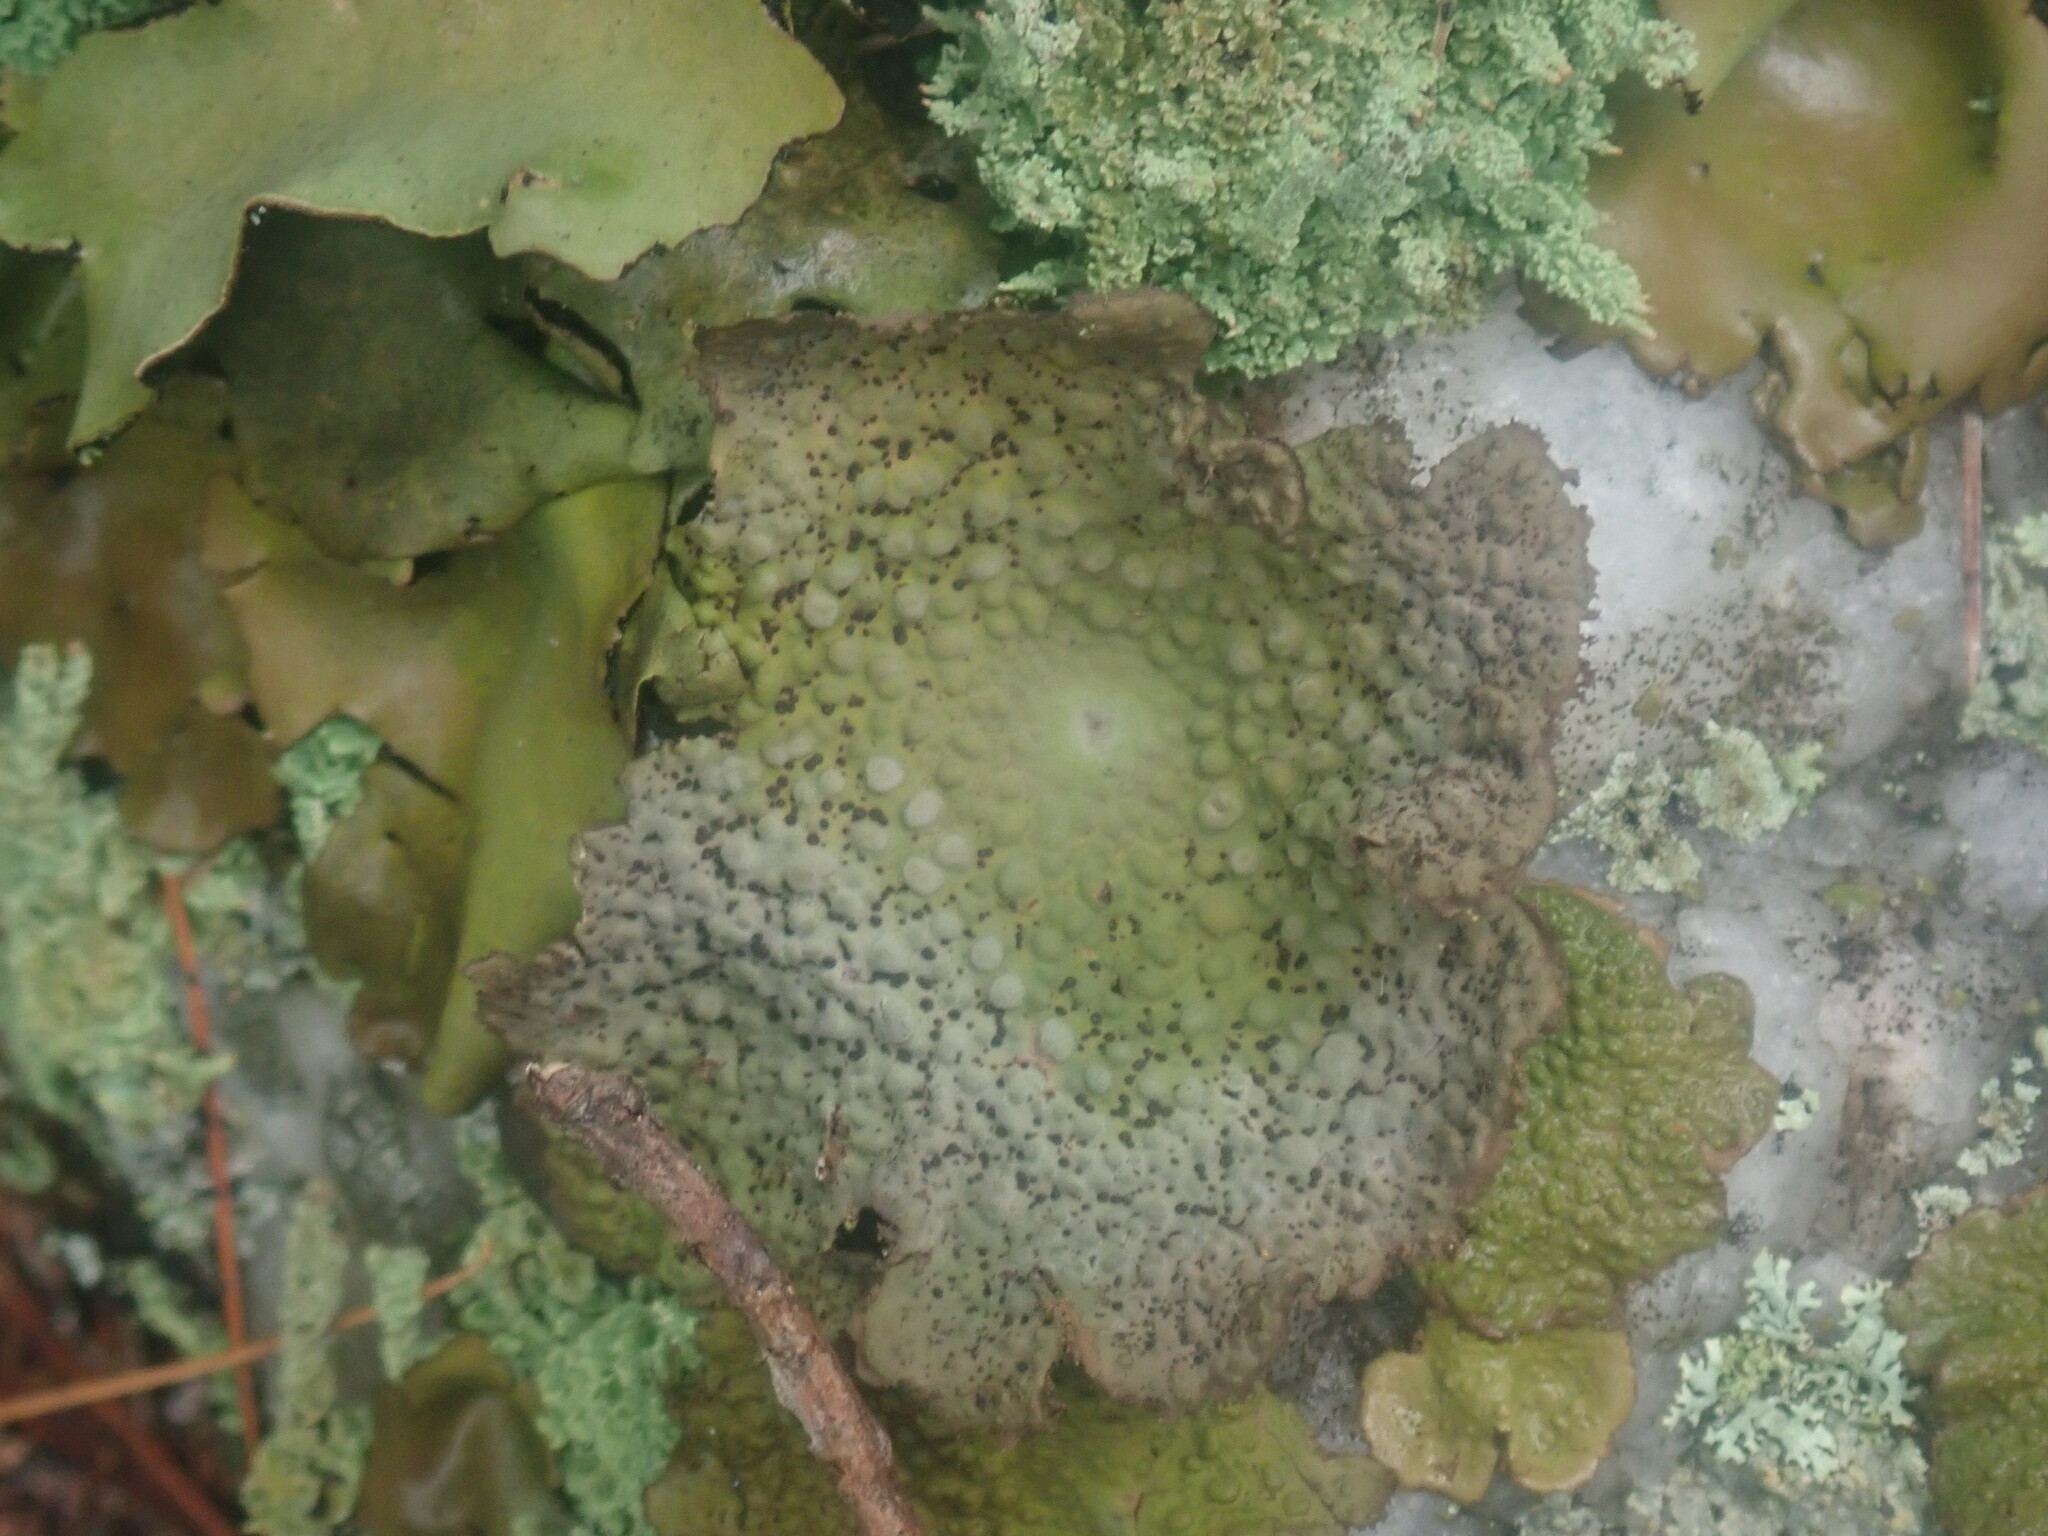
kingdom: Fungi
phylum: Ascomycota
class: Lecanoromycetes
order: Umbilicariales
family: Umbilicariaceae
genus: Lasallia
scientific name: Lasallia papulosa
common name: Common toadskin lichen
